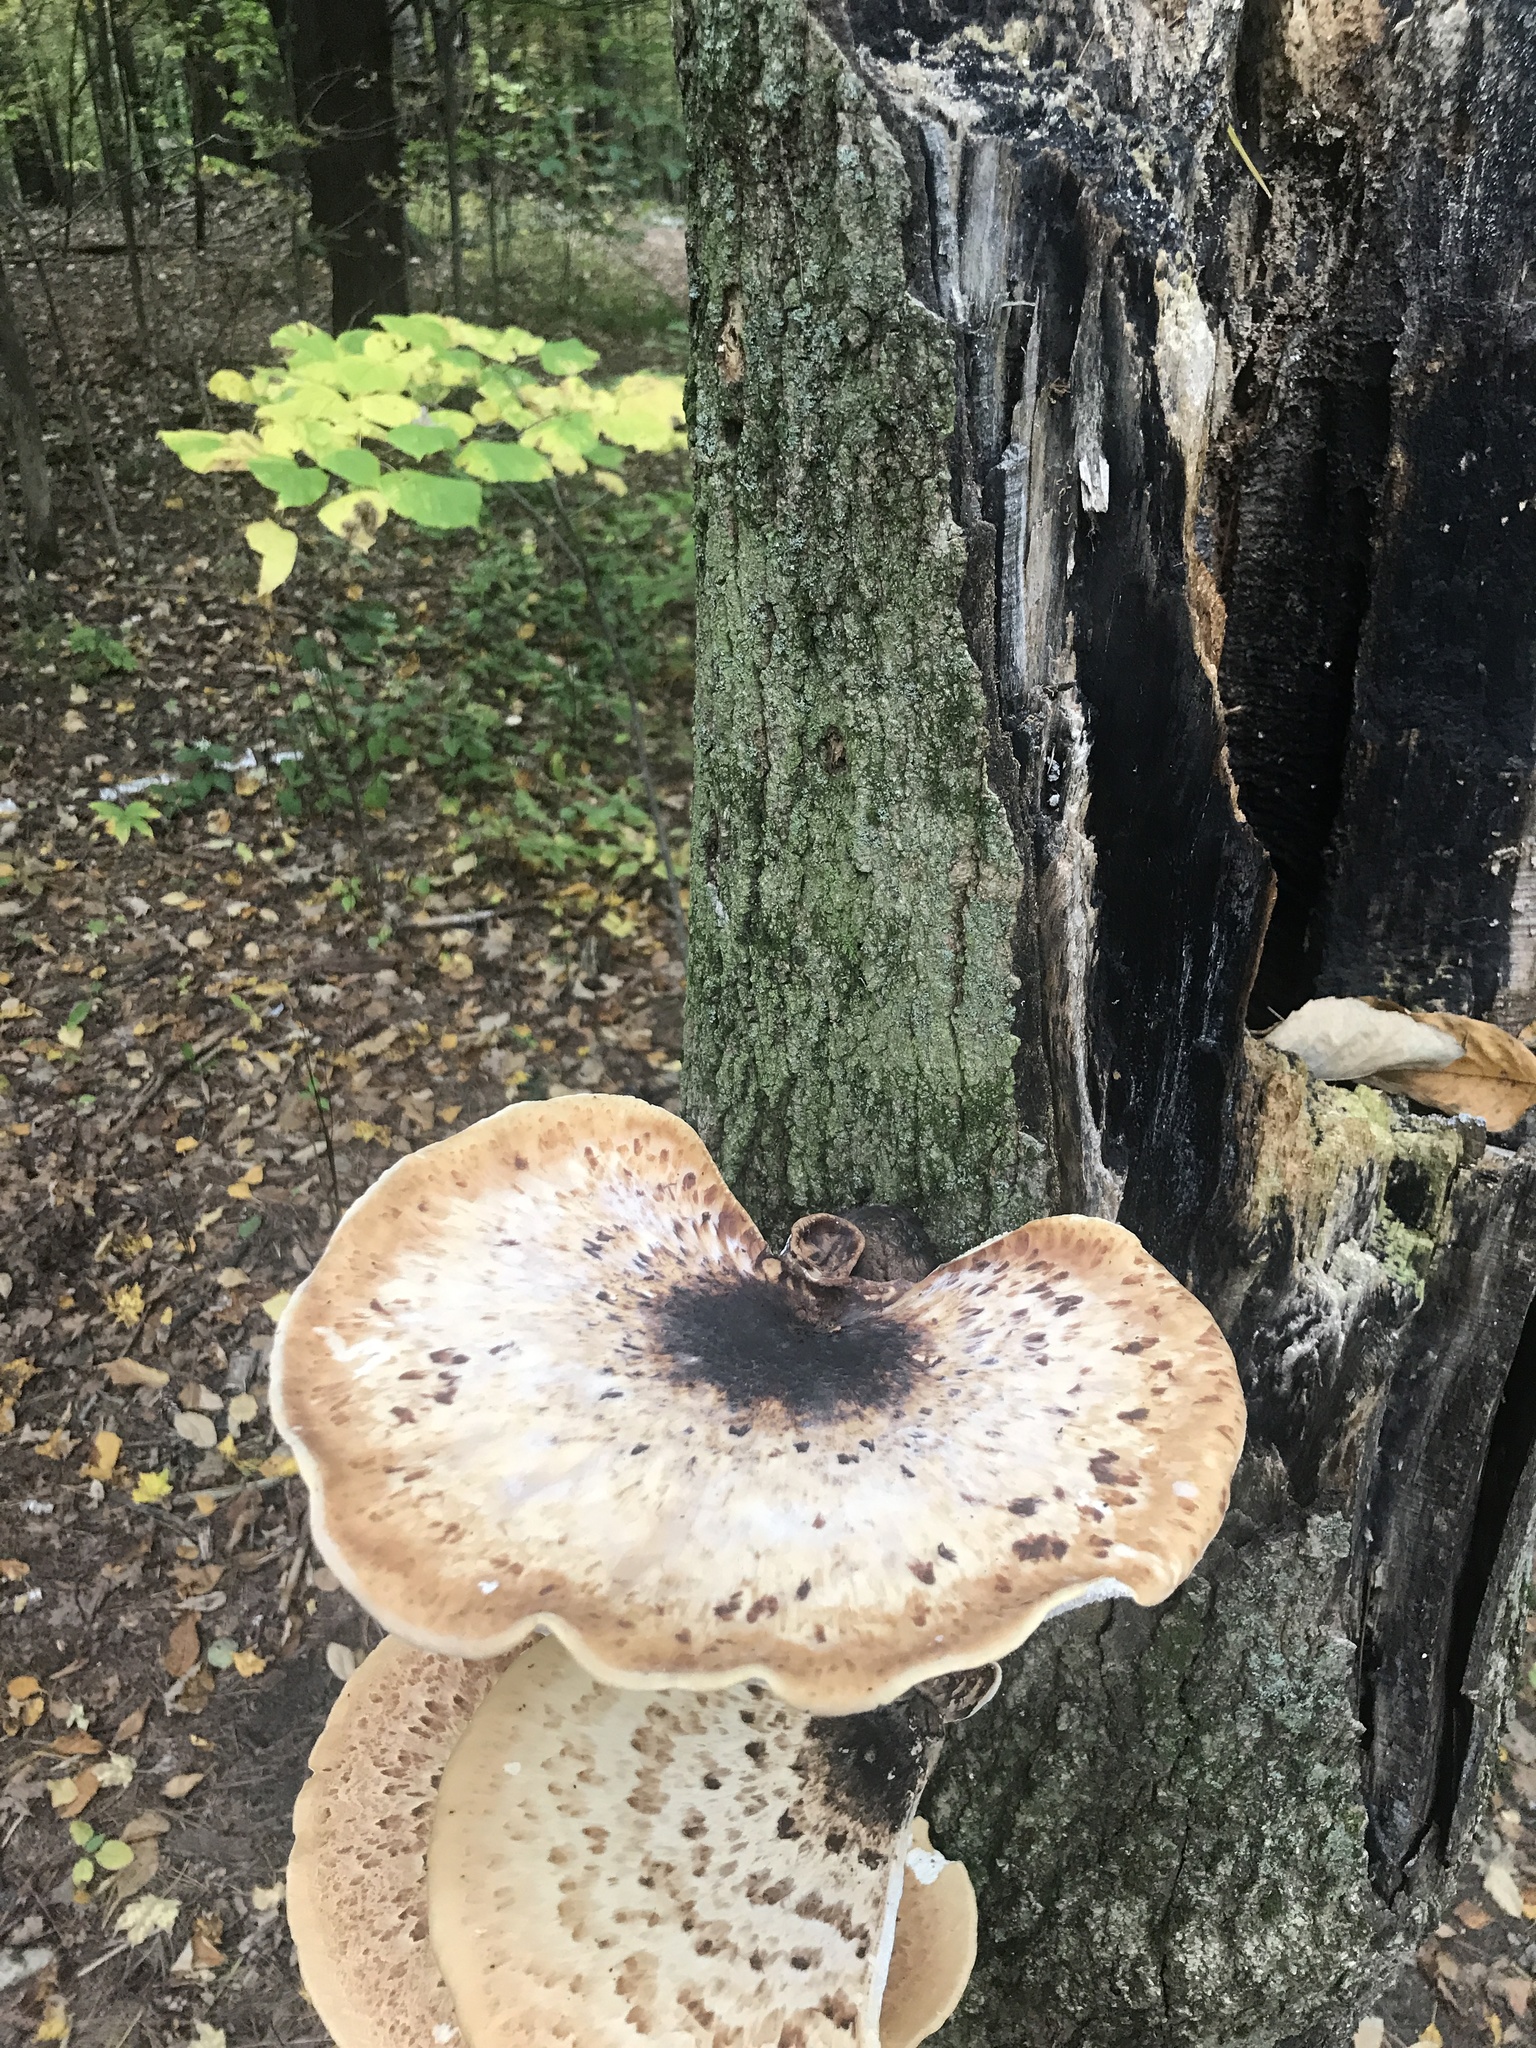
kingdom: Fungi
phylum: Basidiomycota
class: Agaricomycetes
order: Polyporales
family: Polyporaceae
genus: Cerioporus
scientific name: Cerioporus squamosus
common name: Dryad's saddle
